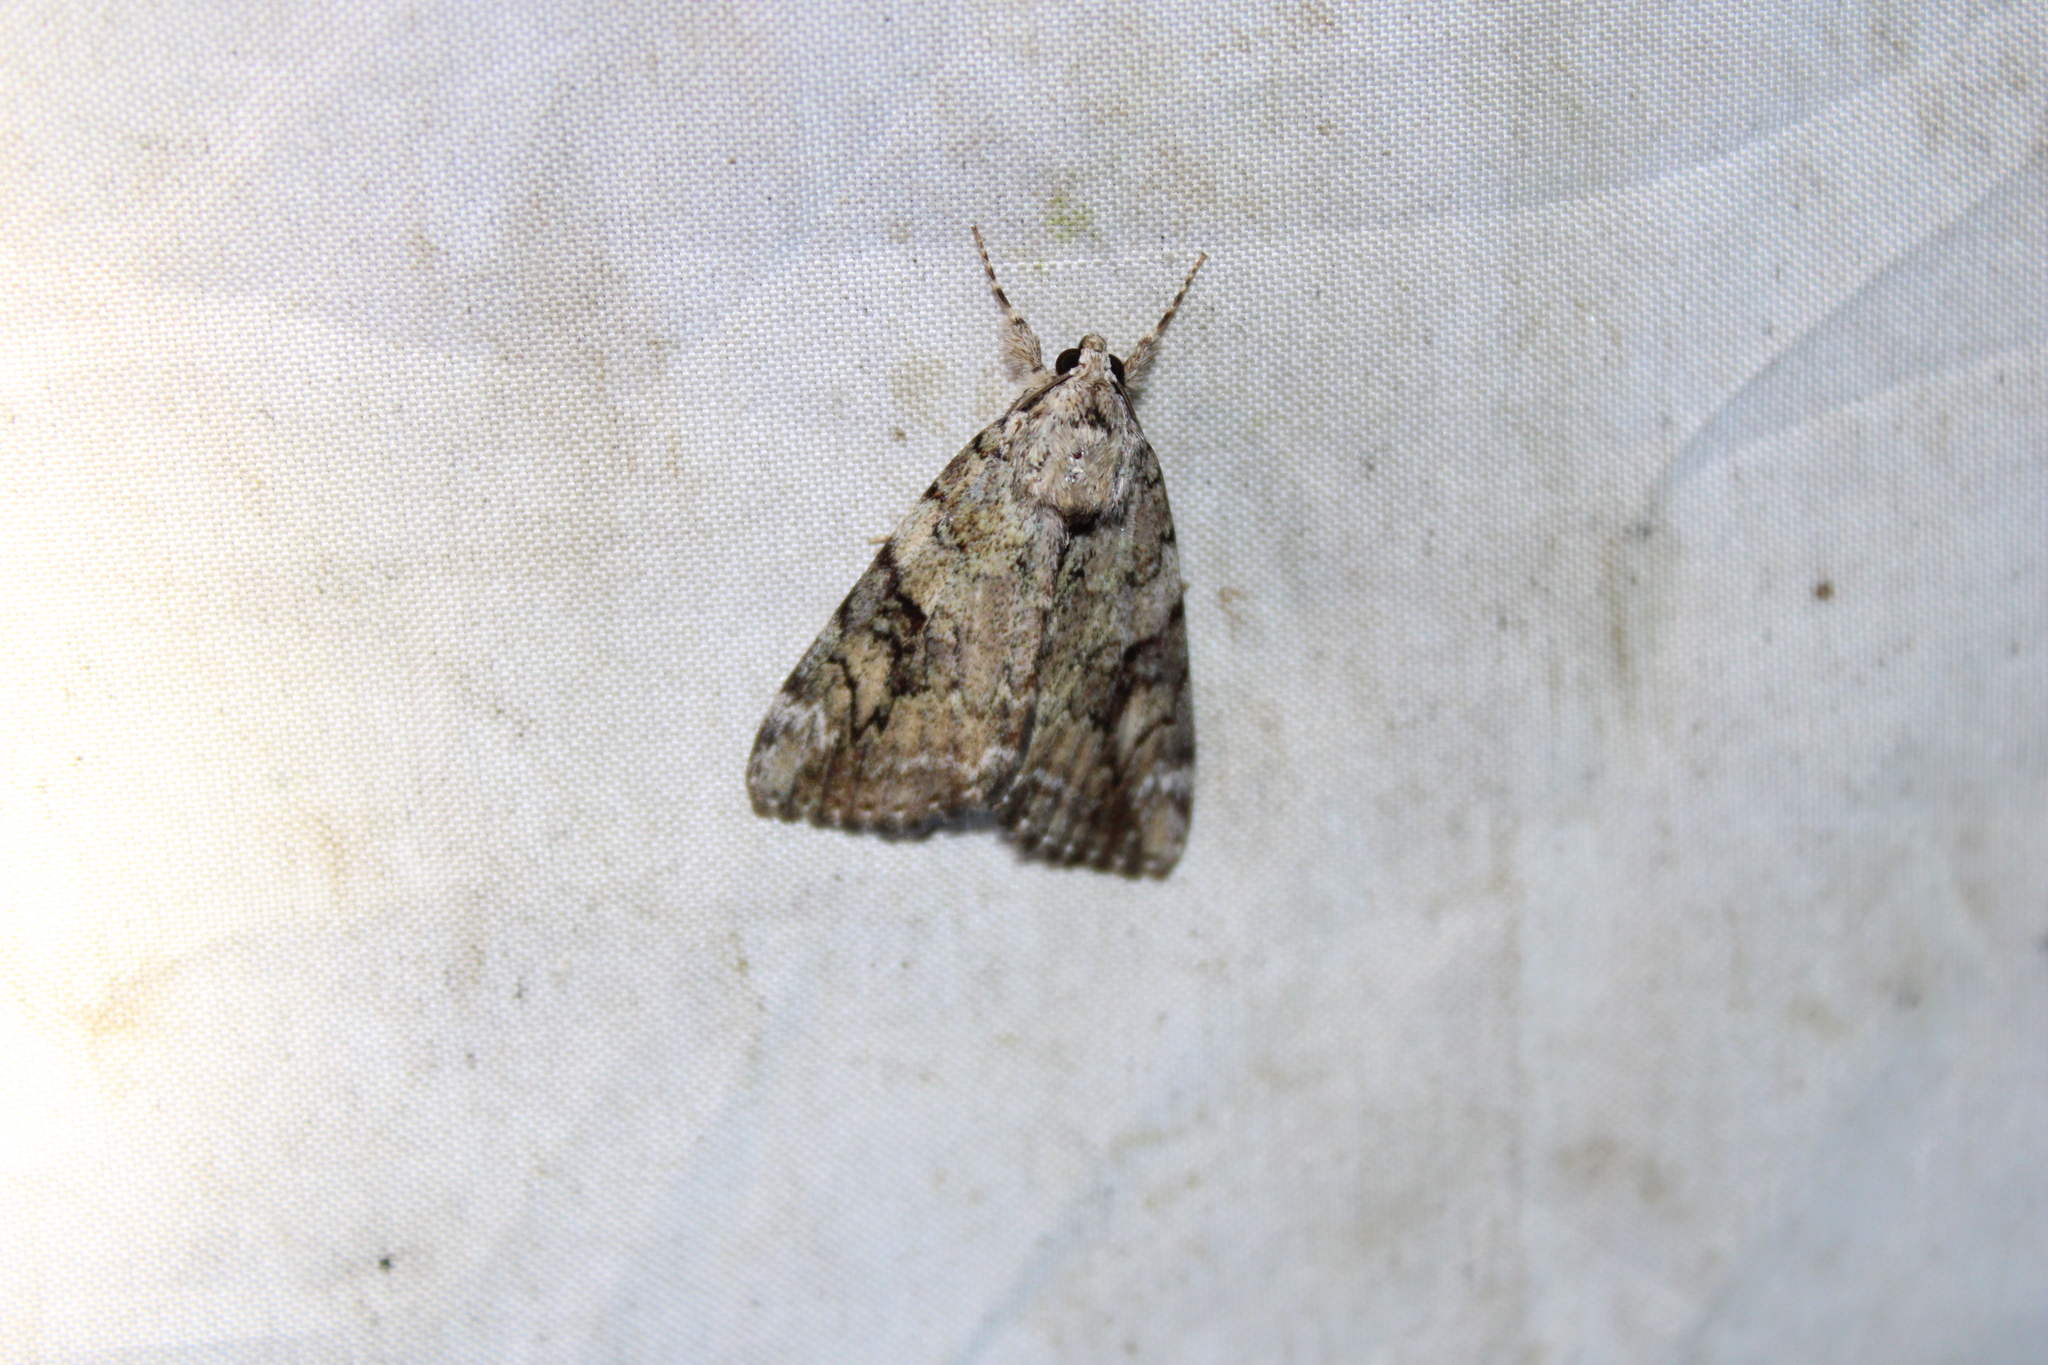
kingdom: Animalia
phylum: Arthropoda
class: Insecta
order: Lepidoptera
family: Erebidae
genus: Catocala
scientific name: Catocala micronympha
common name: Little nymph underwing
